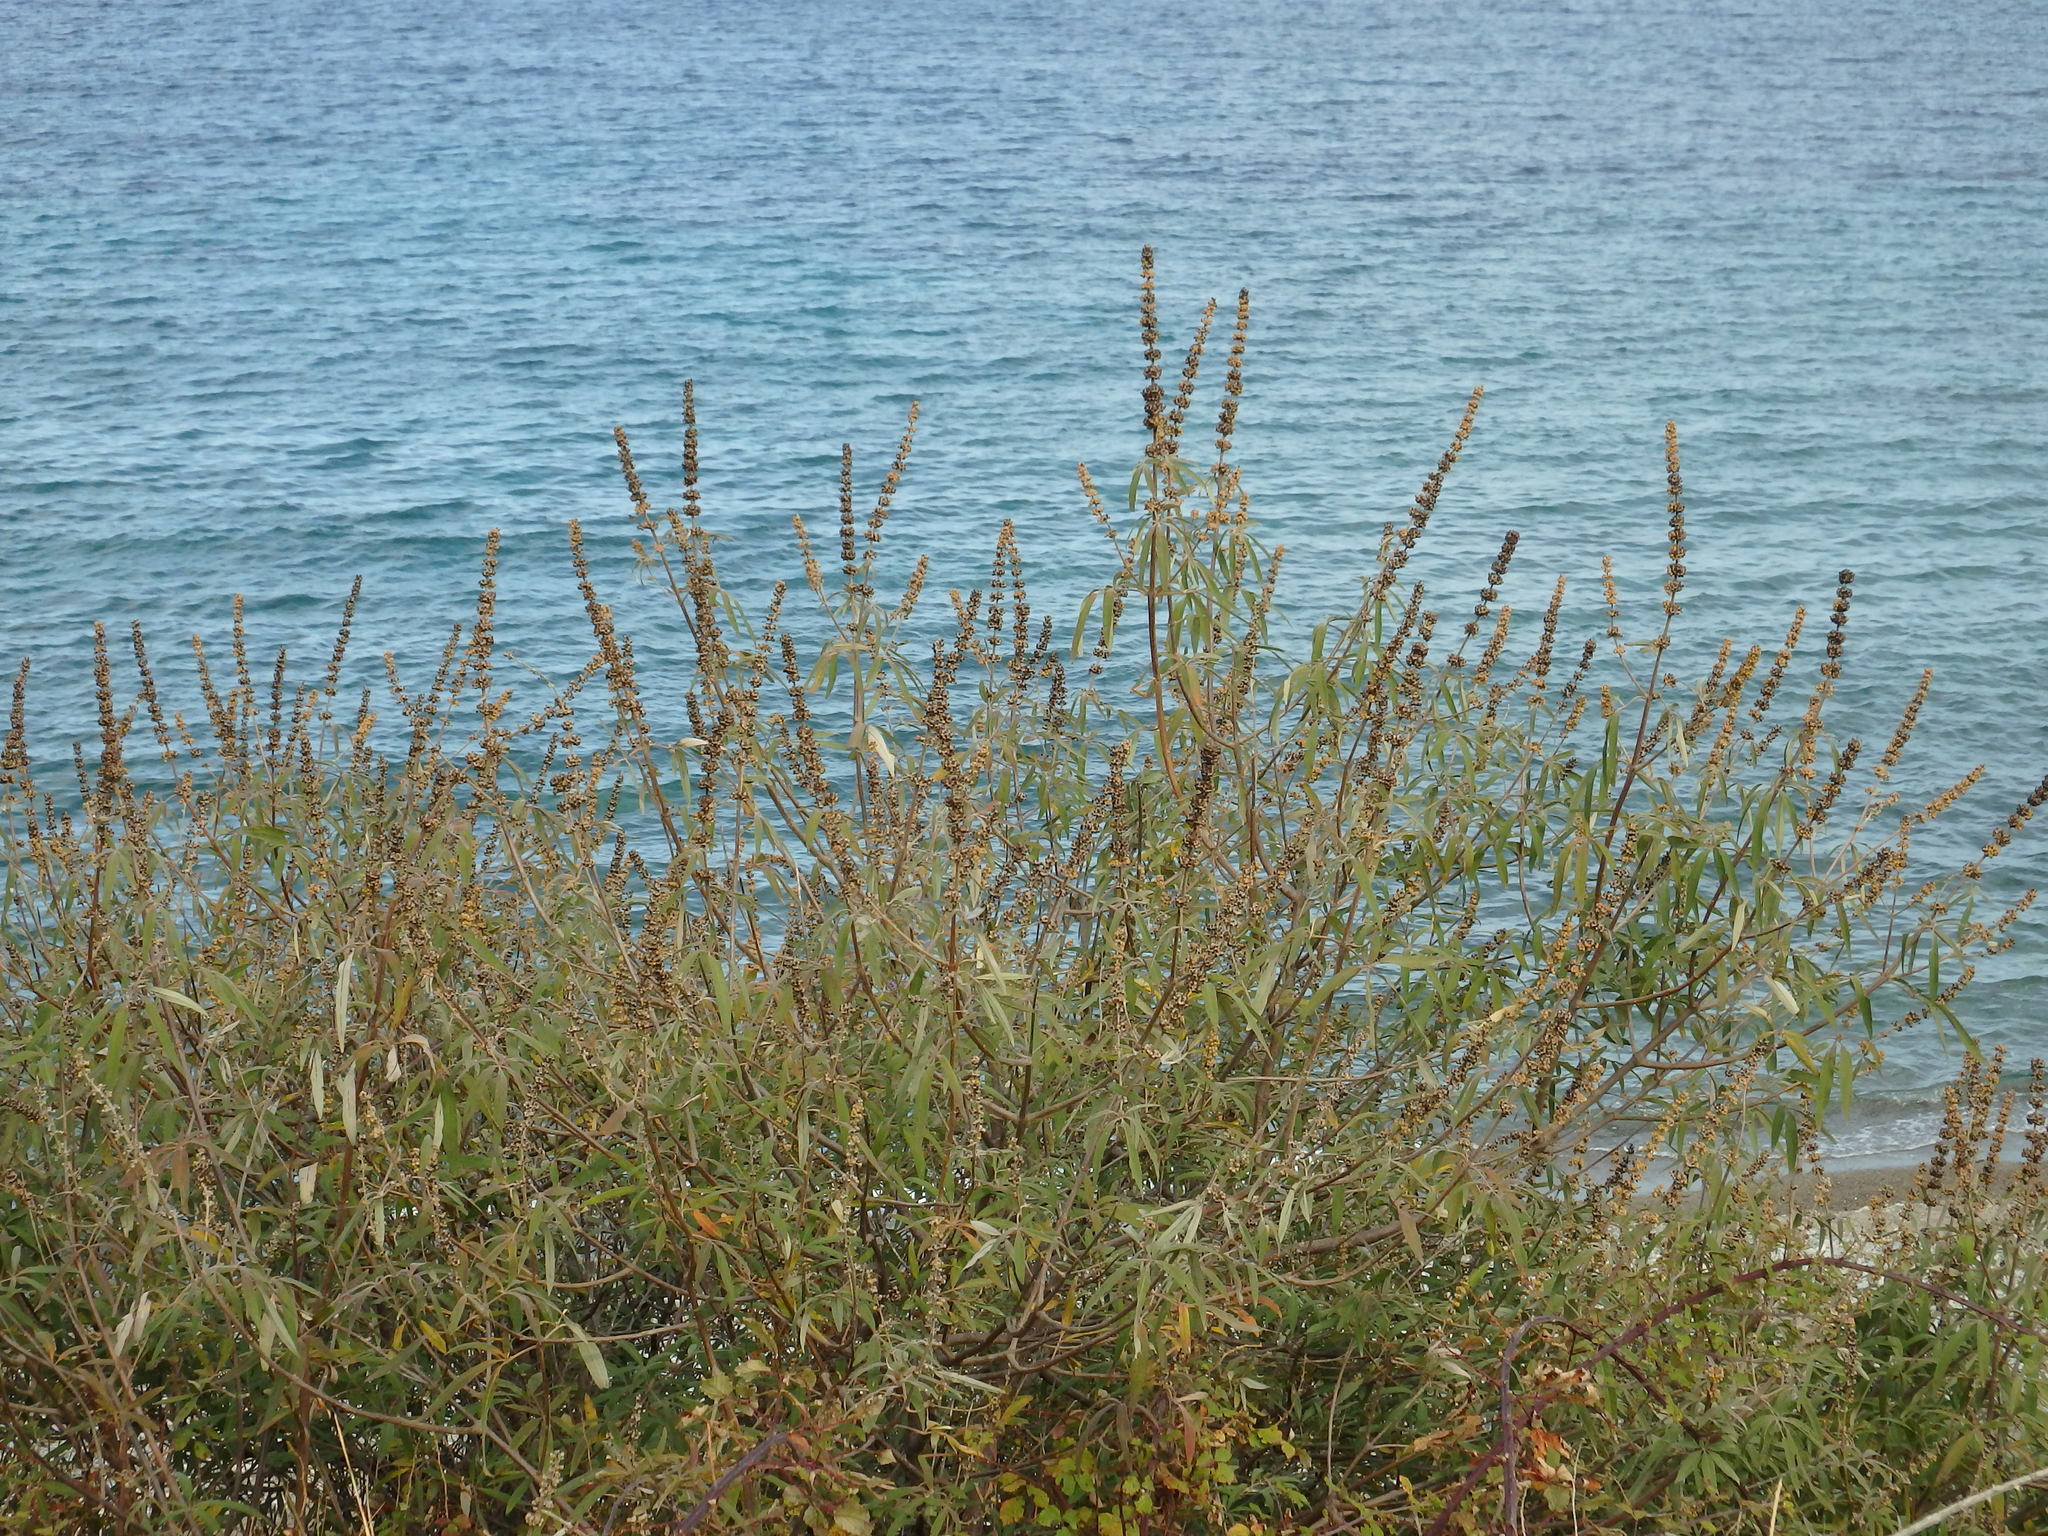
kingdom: Plantae
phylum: Tracheophyta
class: Magnoliopsida
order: Lamiales
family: Lamiaceae
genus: Vitex
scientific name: Vitex agnus-castus
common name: Chasteberry
